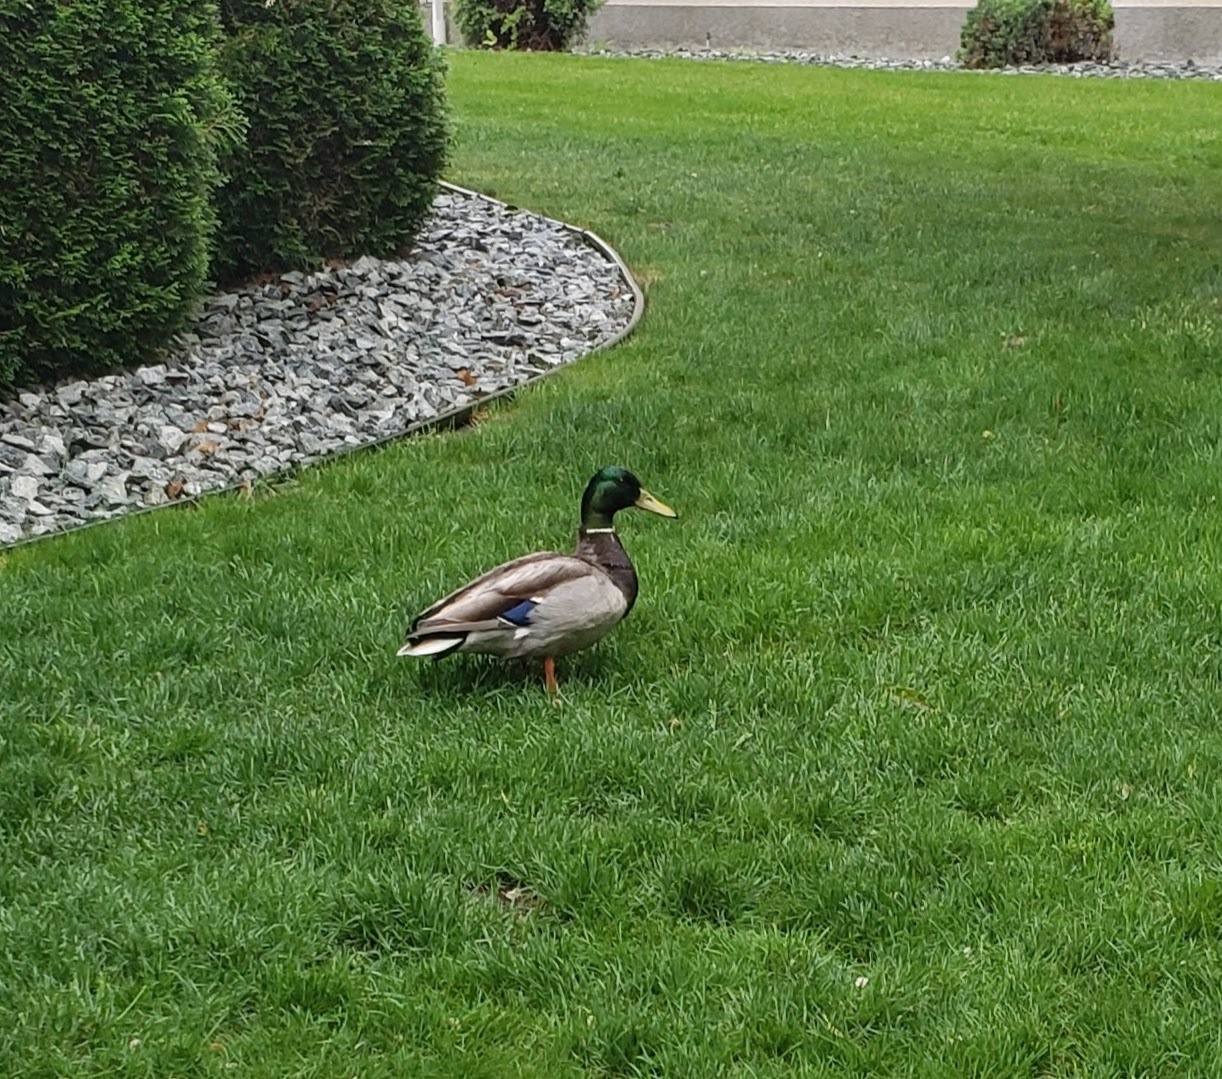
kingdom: Animalia
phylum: Chordata
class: Aves
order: Anseriformes
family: Anatidae
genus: Anas
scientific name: Anas platyrhynchos
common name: Mallard
